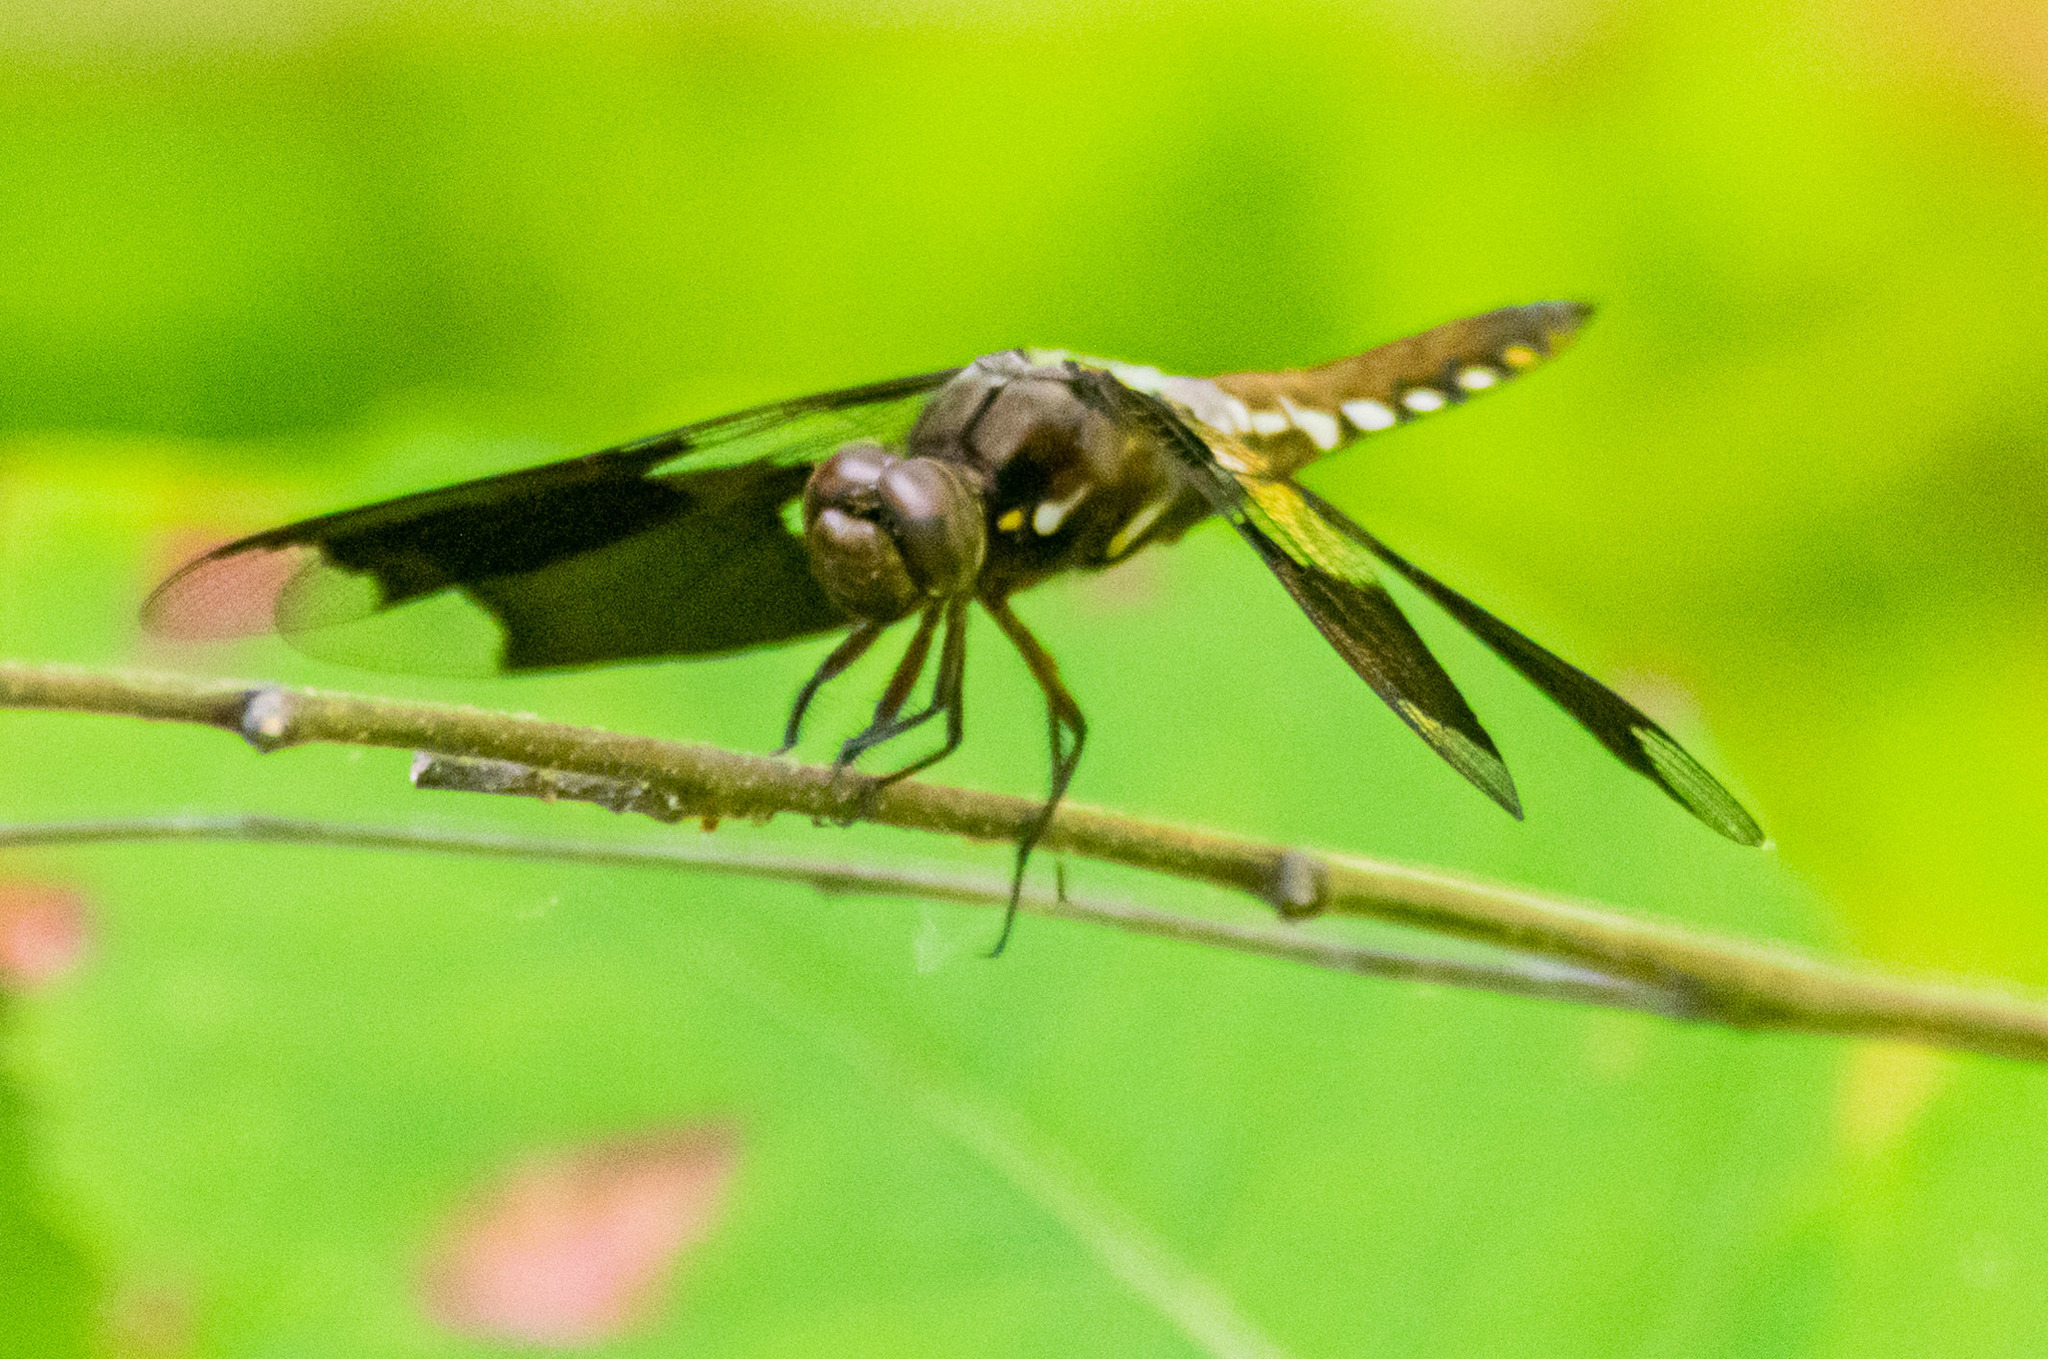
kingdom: Animalia
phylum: Arthropoda
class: Insecta
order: Odonata
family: Libellulidae
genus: Plathemis
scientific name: Plathemis lydia
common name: Common whitetail
